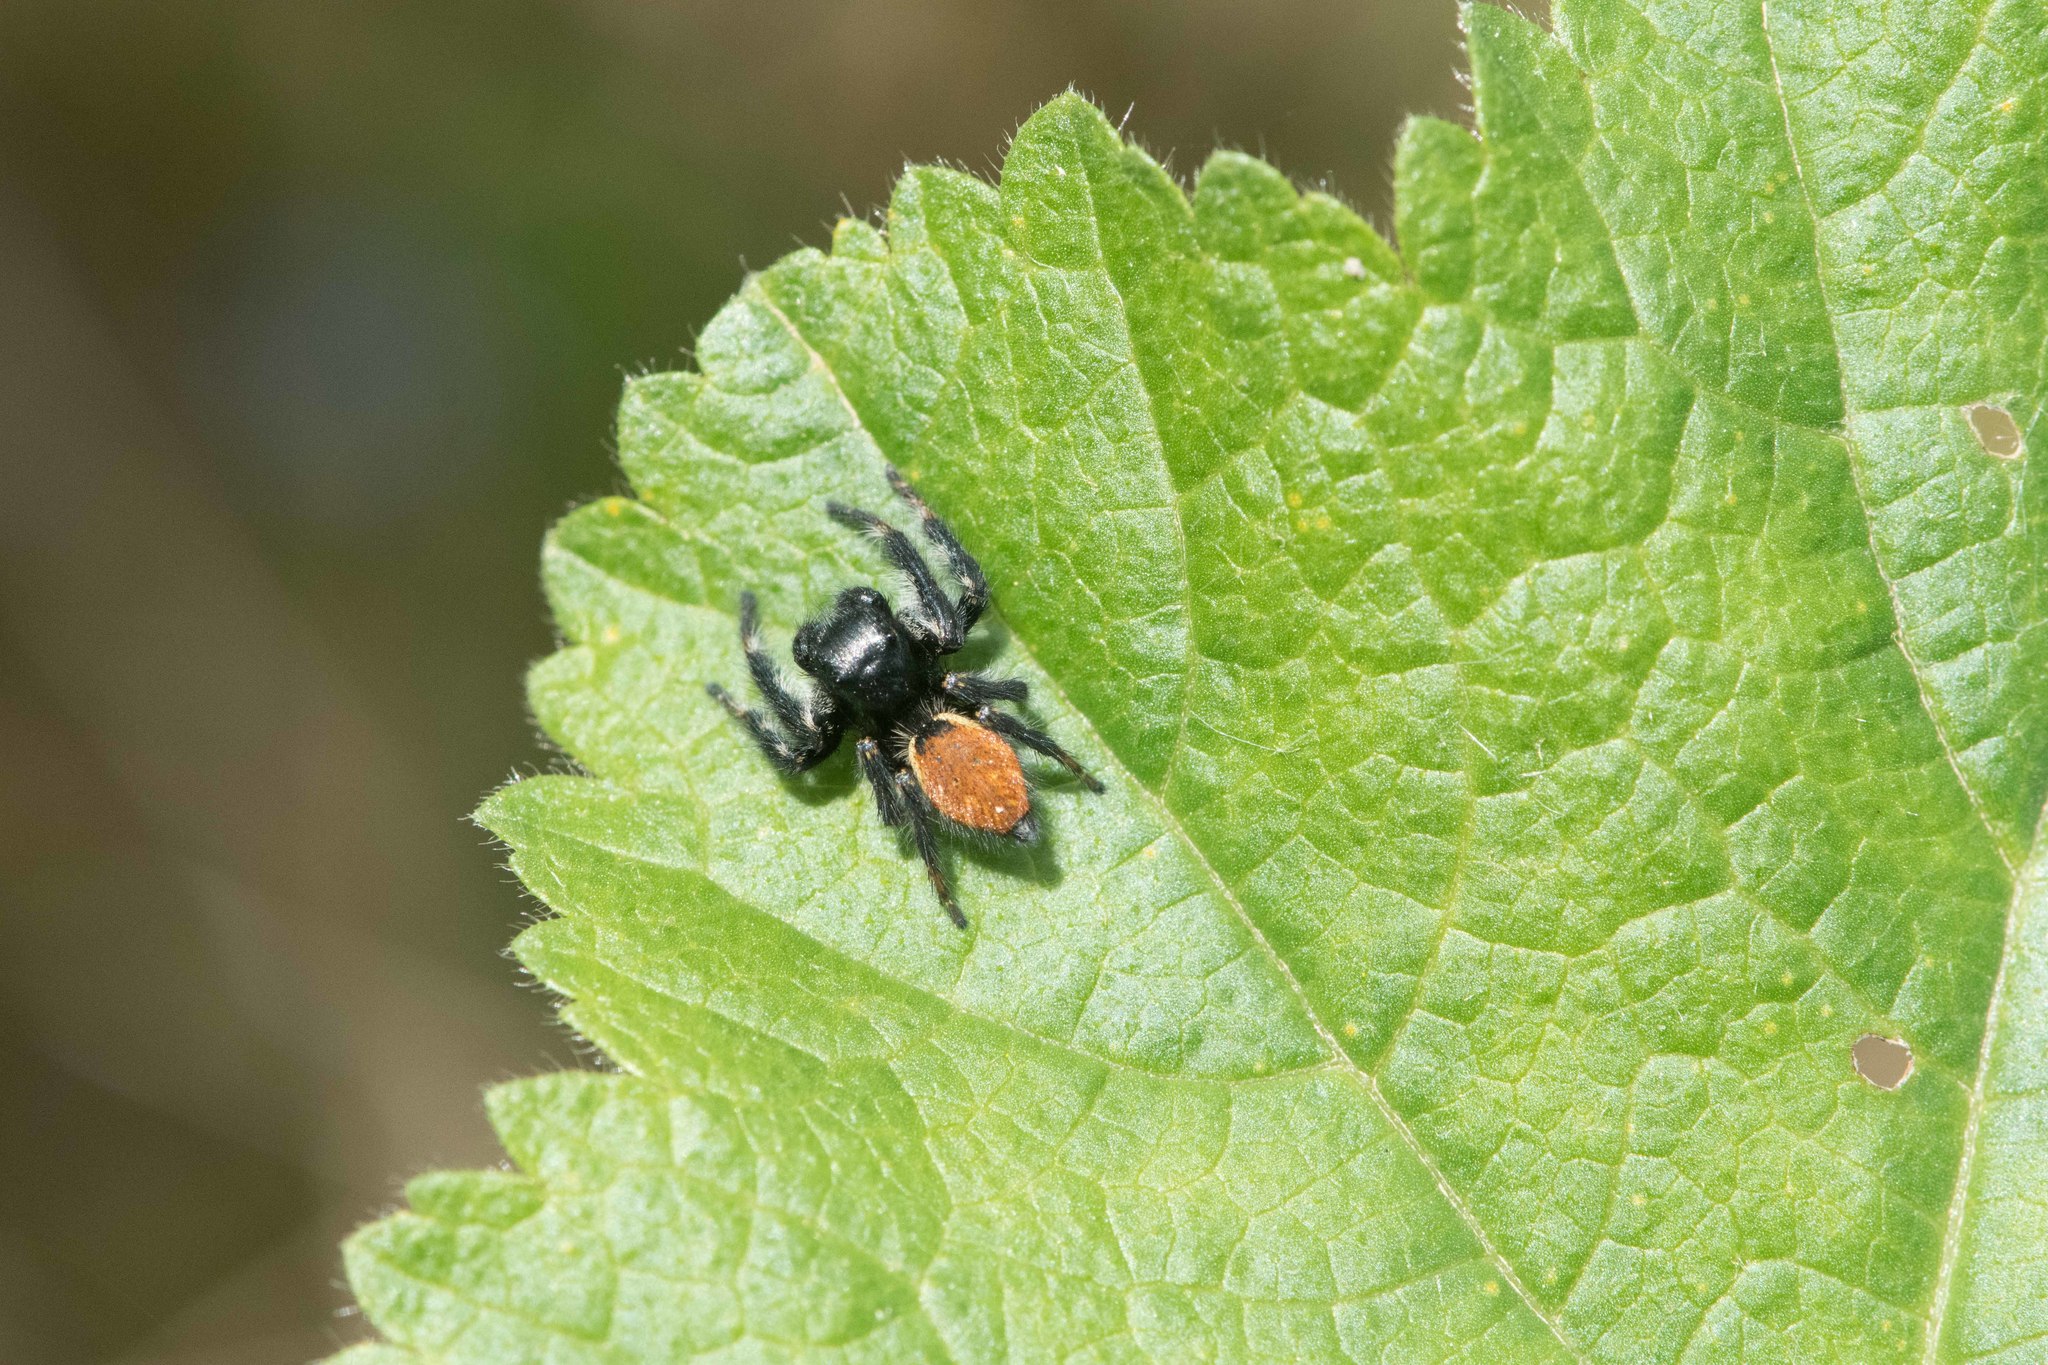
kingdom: Animalia
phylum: Arthropoda
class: Arachnida
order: Araneae
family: Salticidae
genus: Carrhotus
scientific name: Carrhotus xanthogramma
